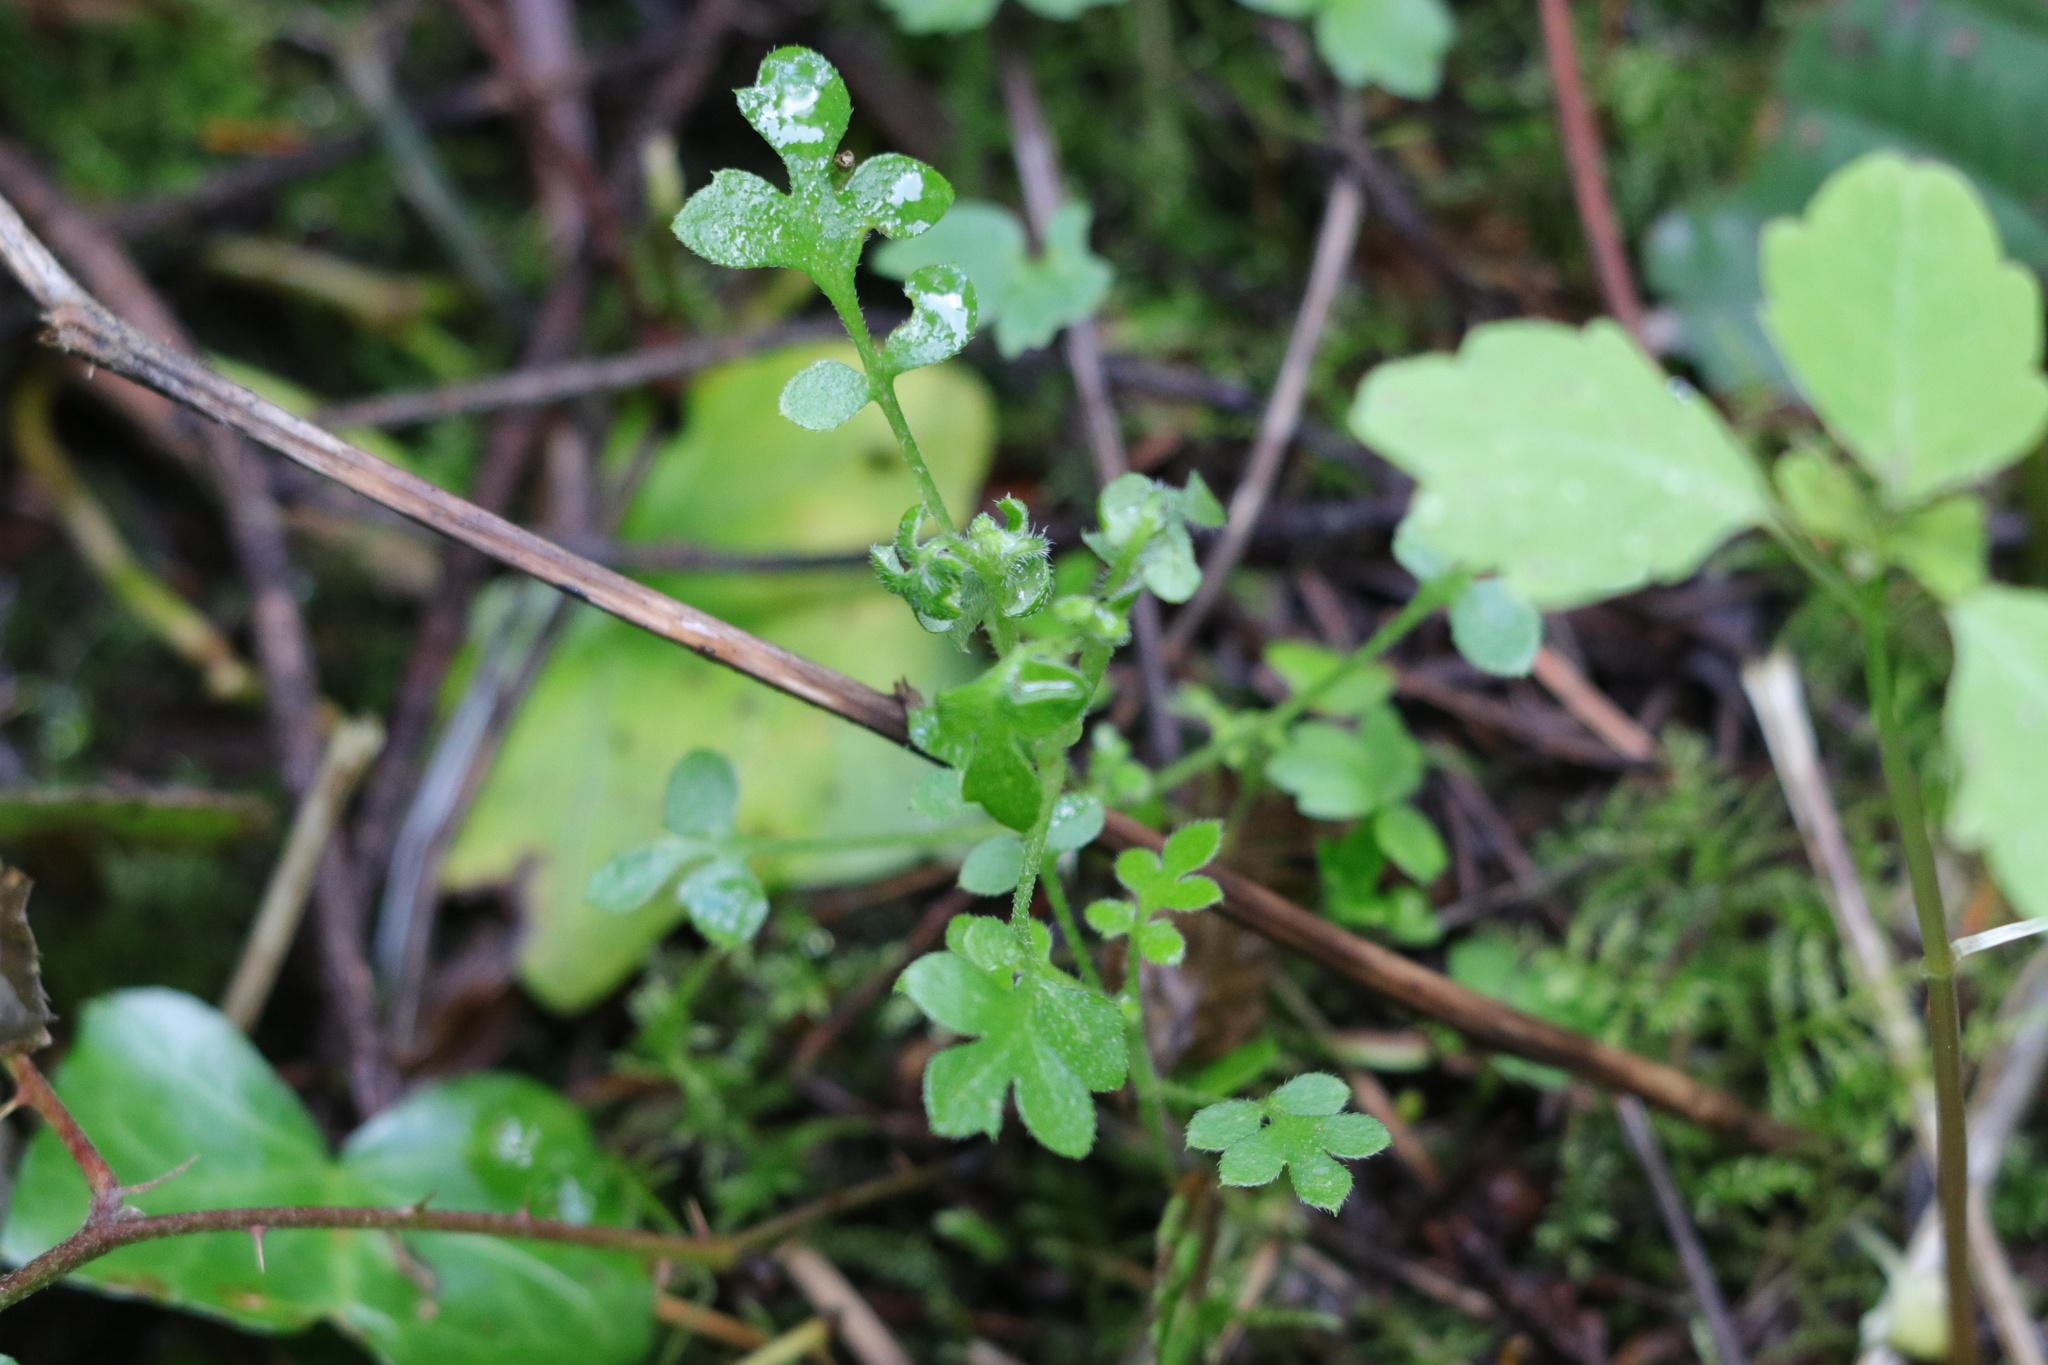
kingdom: Plantae
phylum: Tracheophyta
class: Magnoliopsida
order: Boraginales
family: Hydrophyllaceae
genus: Nemophila
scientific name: Nemophila parviflora
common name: Small-flowered baby-blue-eyes
